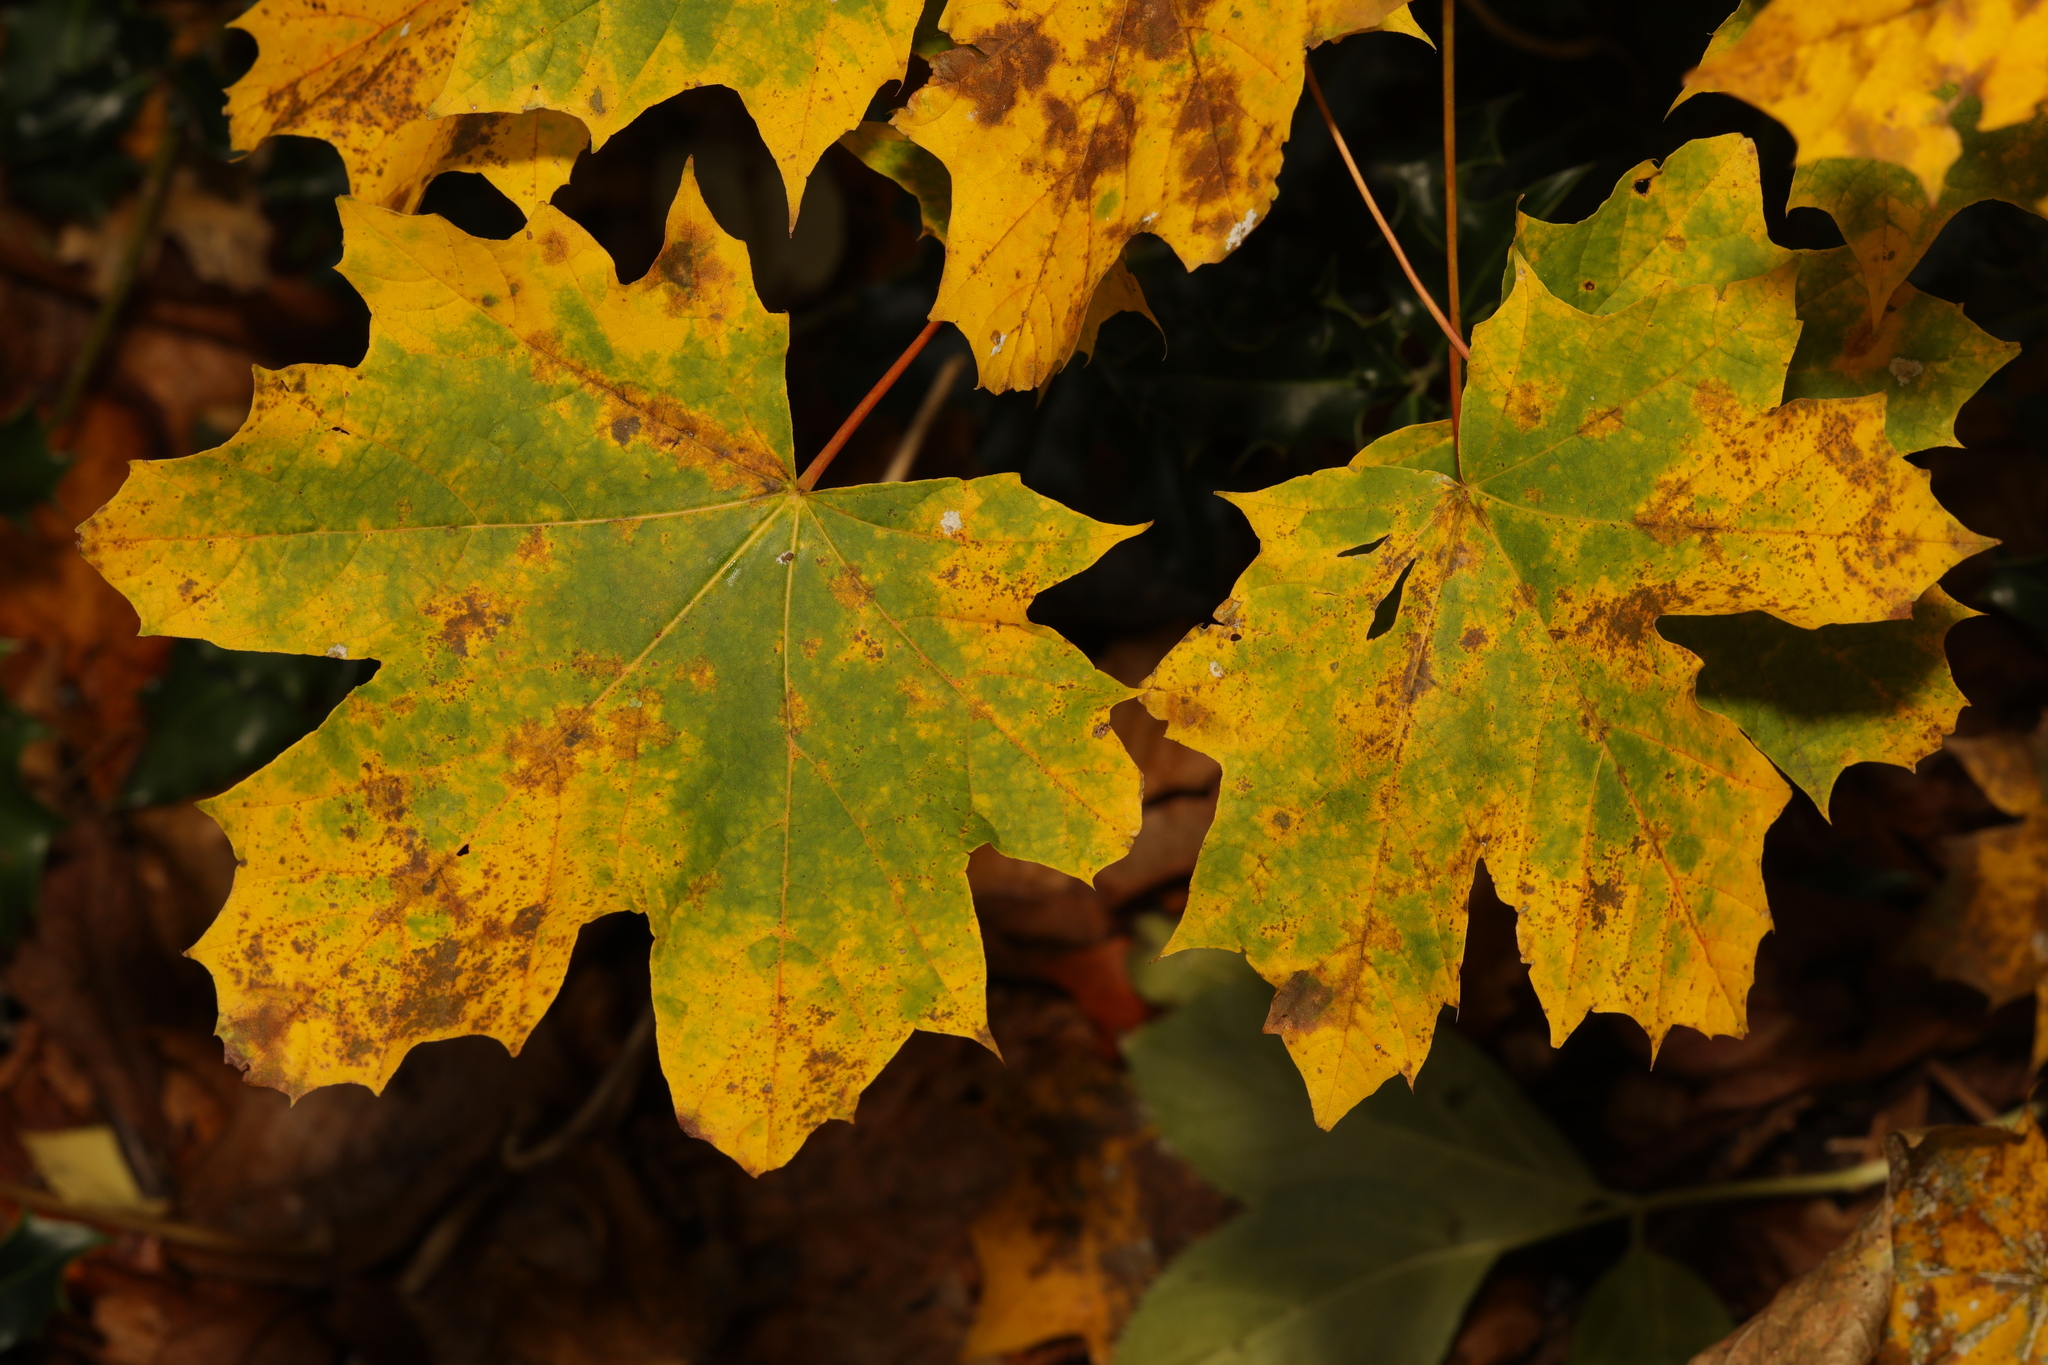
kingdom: Plantae
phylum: Tracheophyta
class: Magnoliopsida
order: Sapindales
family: Sapindaceae
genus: Acer
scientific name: Acer platanoides
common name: Norway maple
